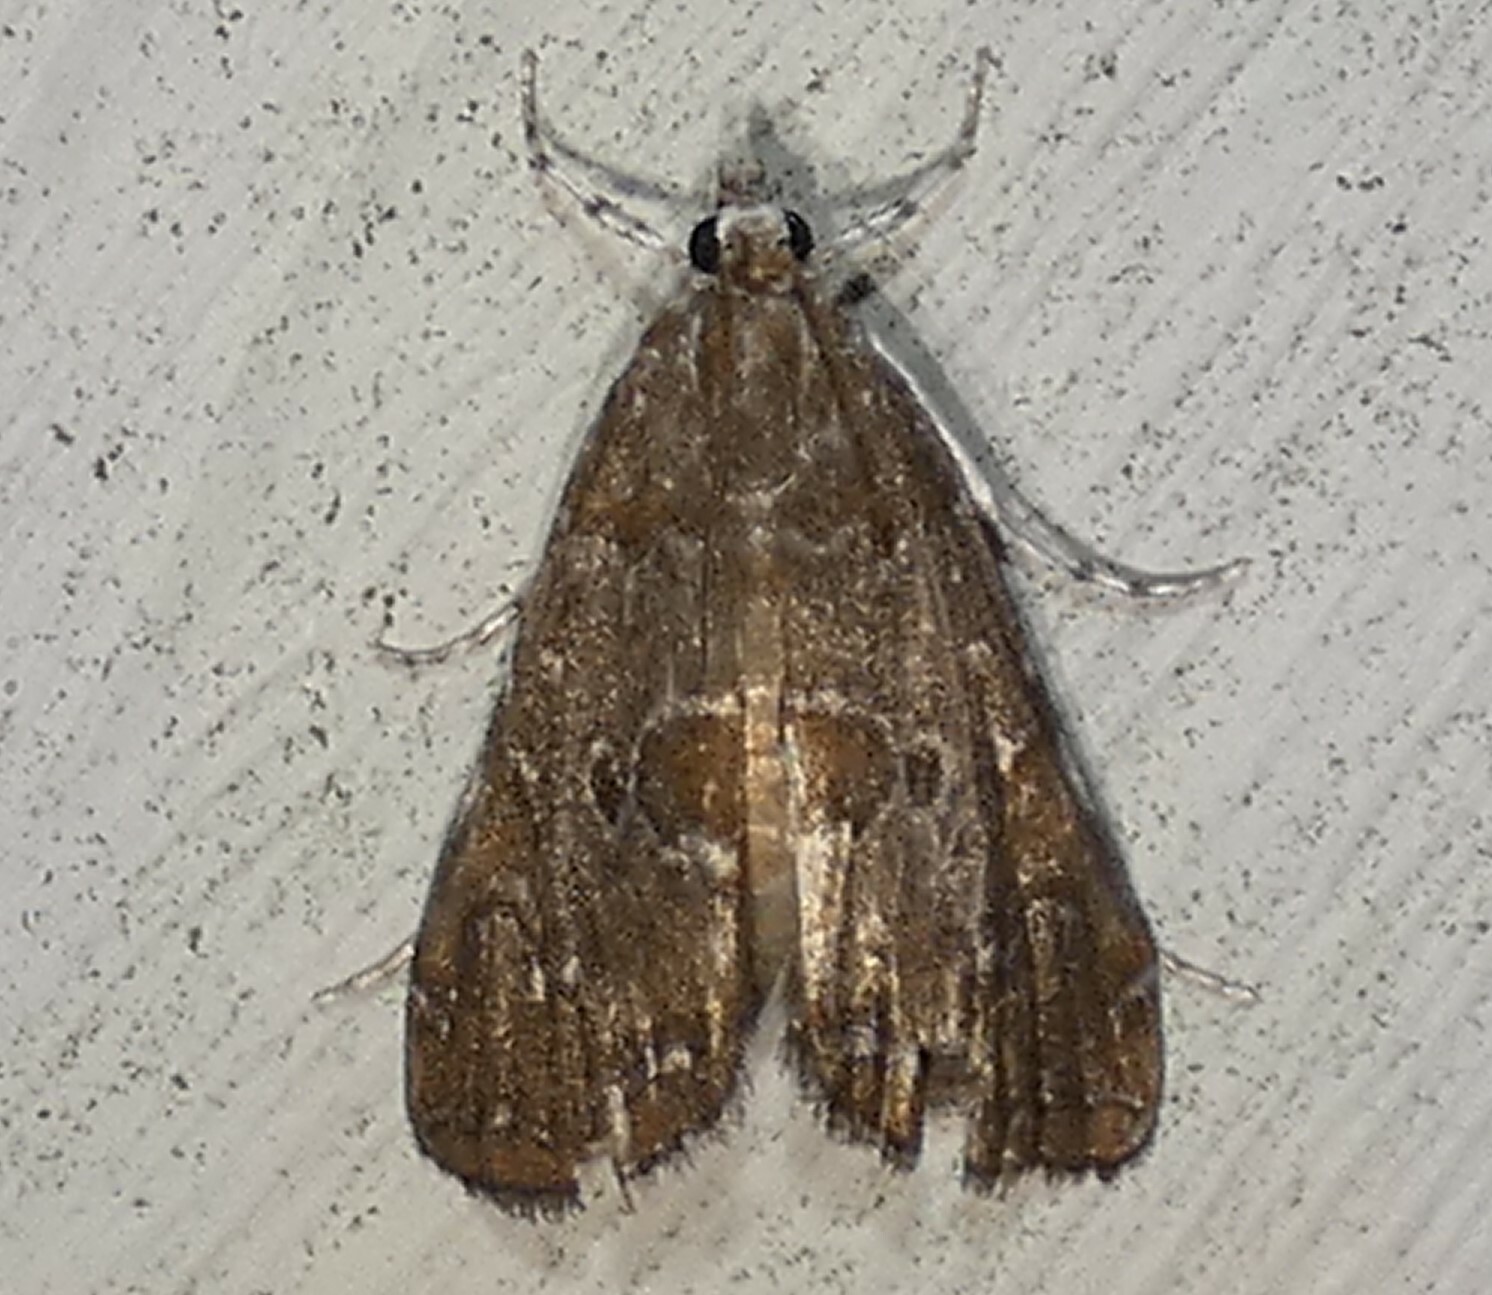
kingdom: Animalia
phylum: Arthropoda
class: Insecta
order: Lepidoptera
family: Crambidae
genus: Elophila
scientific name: Elophila gyralis
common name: Waterlily borer moth
